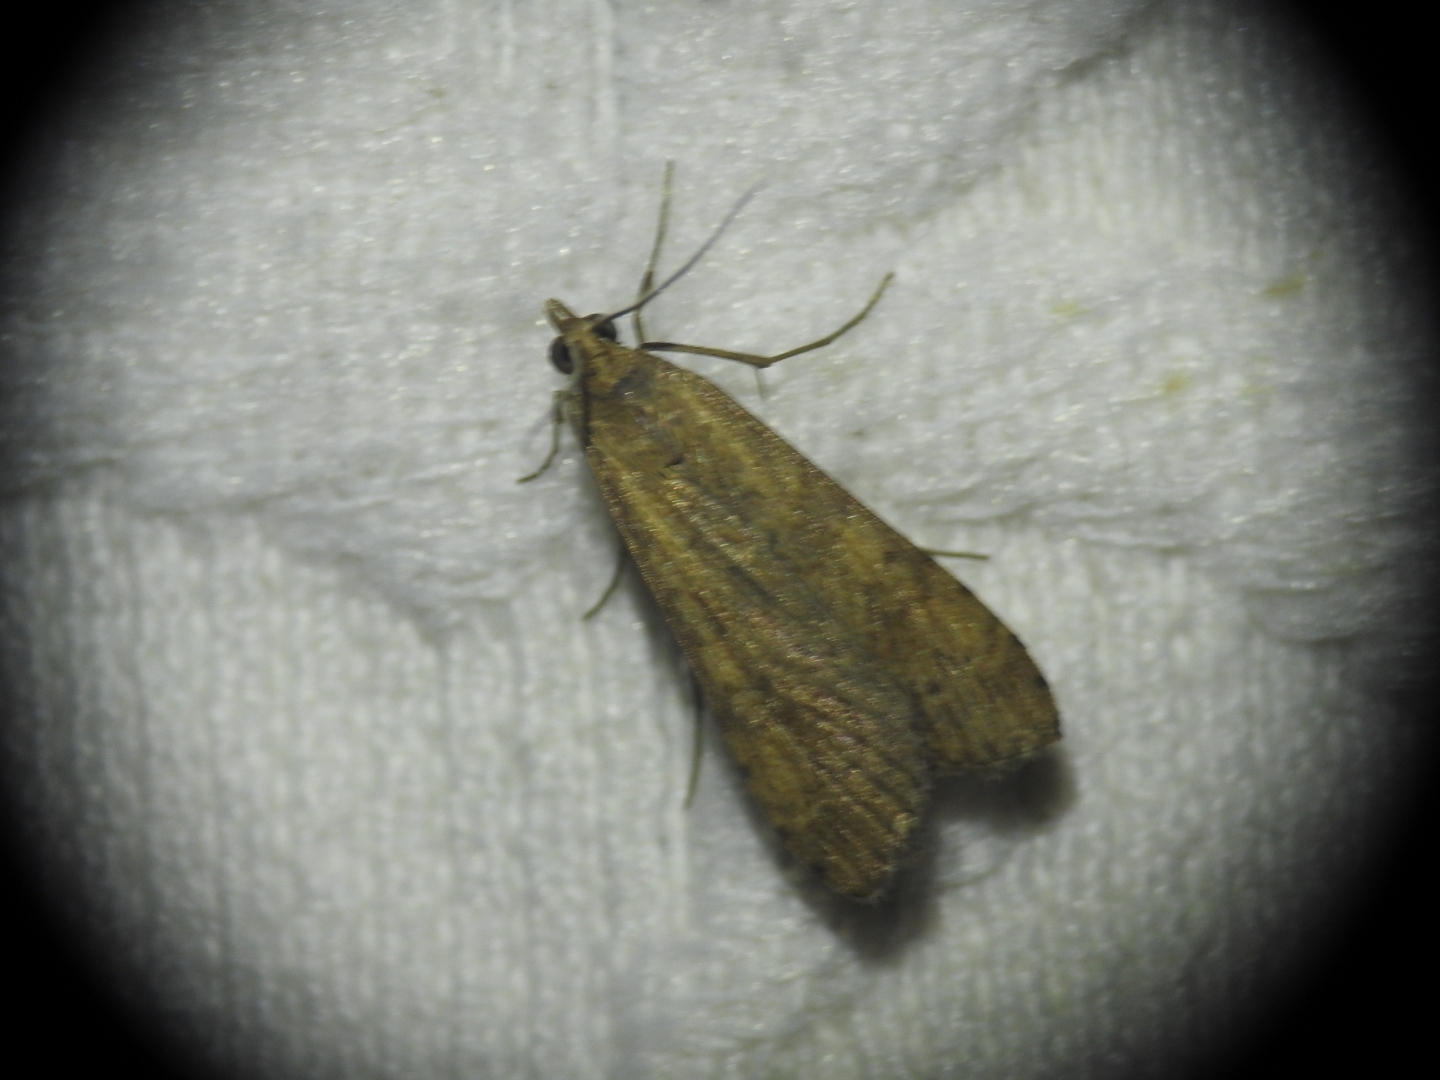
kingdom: Animalia
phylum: Arthropoda
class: Insecta
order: Lepidoptera
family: Crambidae
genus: Nomophila
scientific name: Nomophila noctuella
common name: Rush veneer
